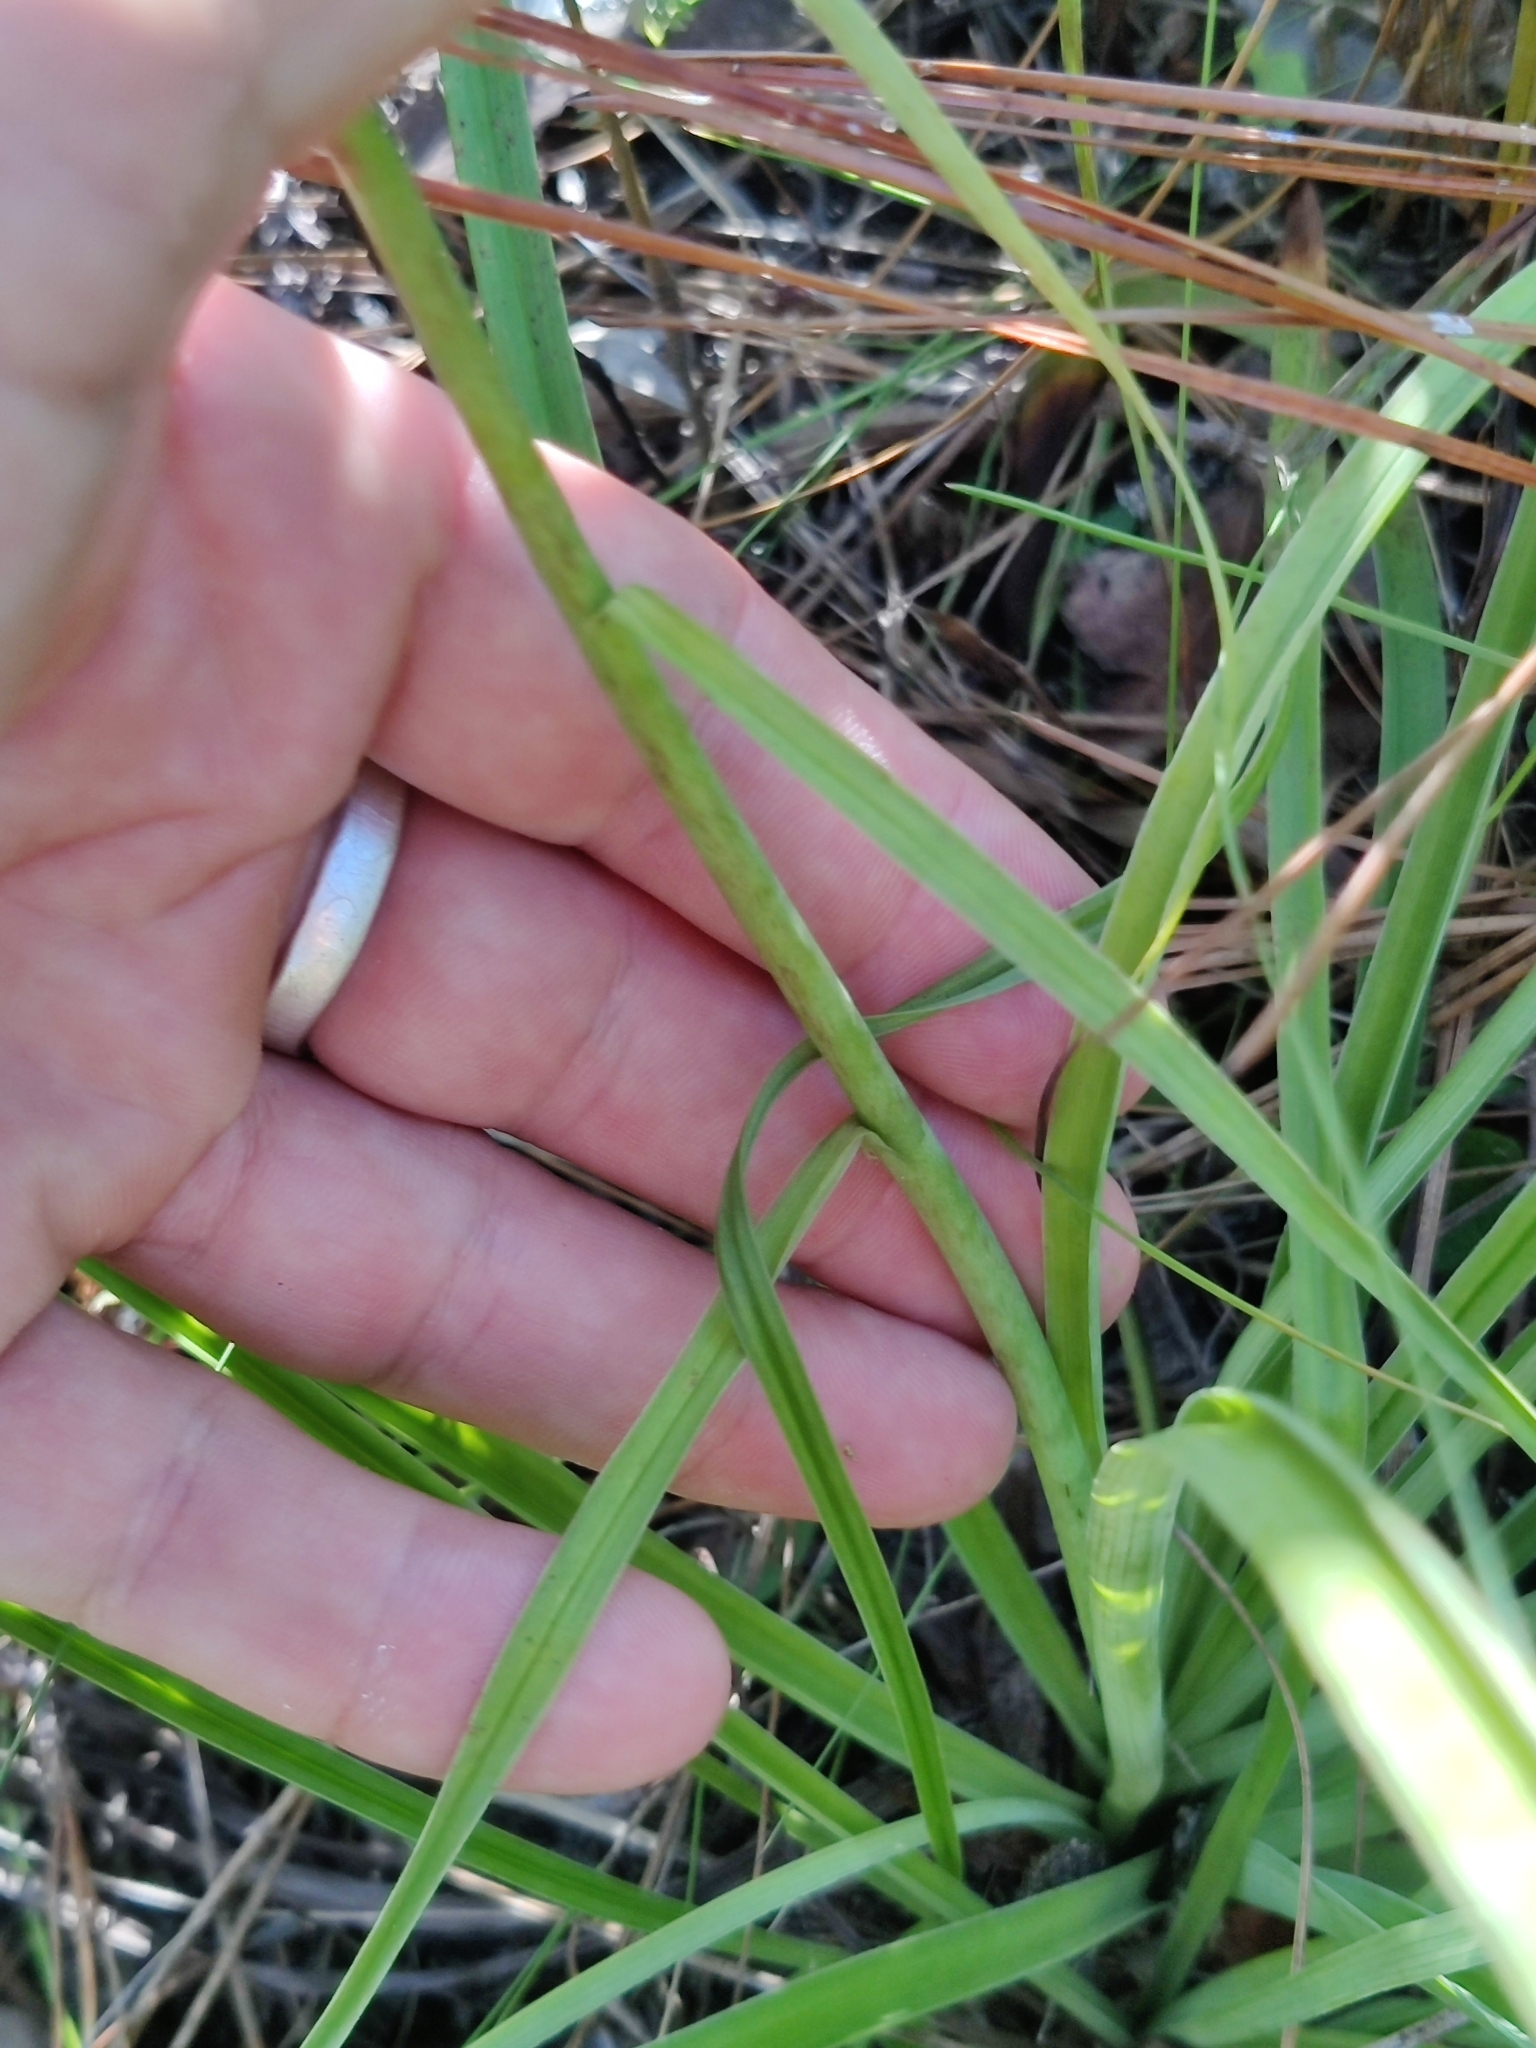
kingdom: Plantae
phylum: Tracheophyta
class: Liliopsida
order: Liliales
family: Melanthiaceae
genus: Amianthium
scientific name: Amianthium muscitoxicum
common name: Fly-poison
